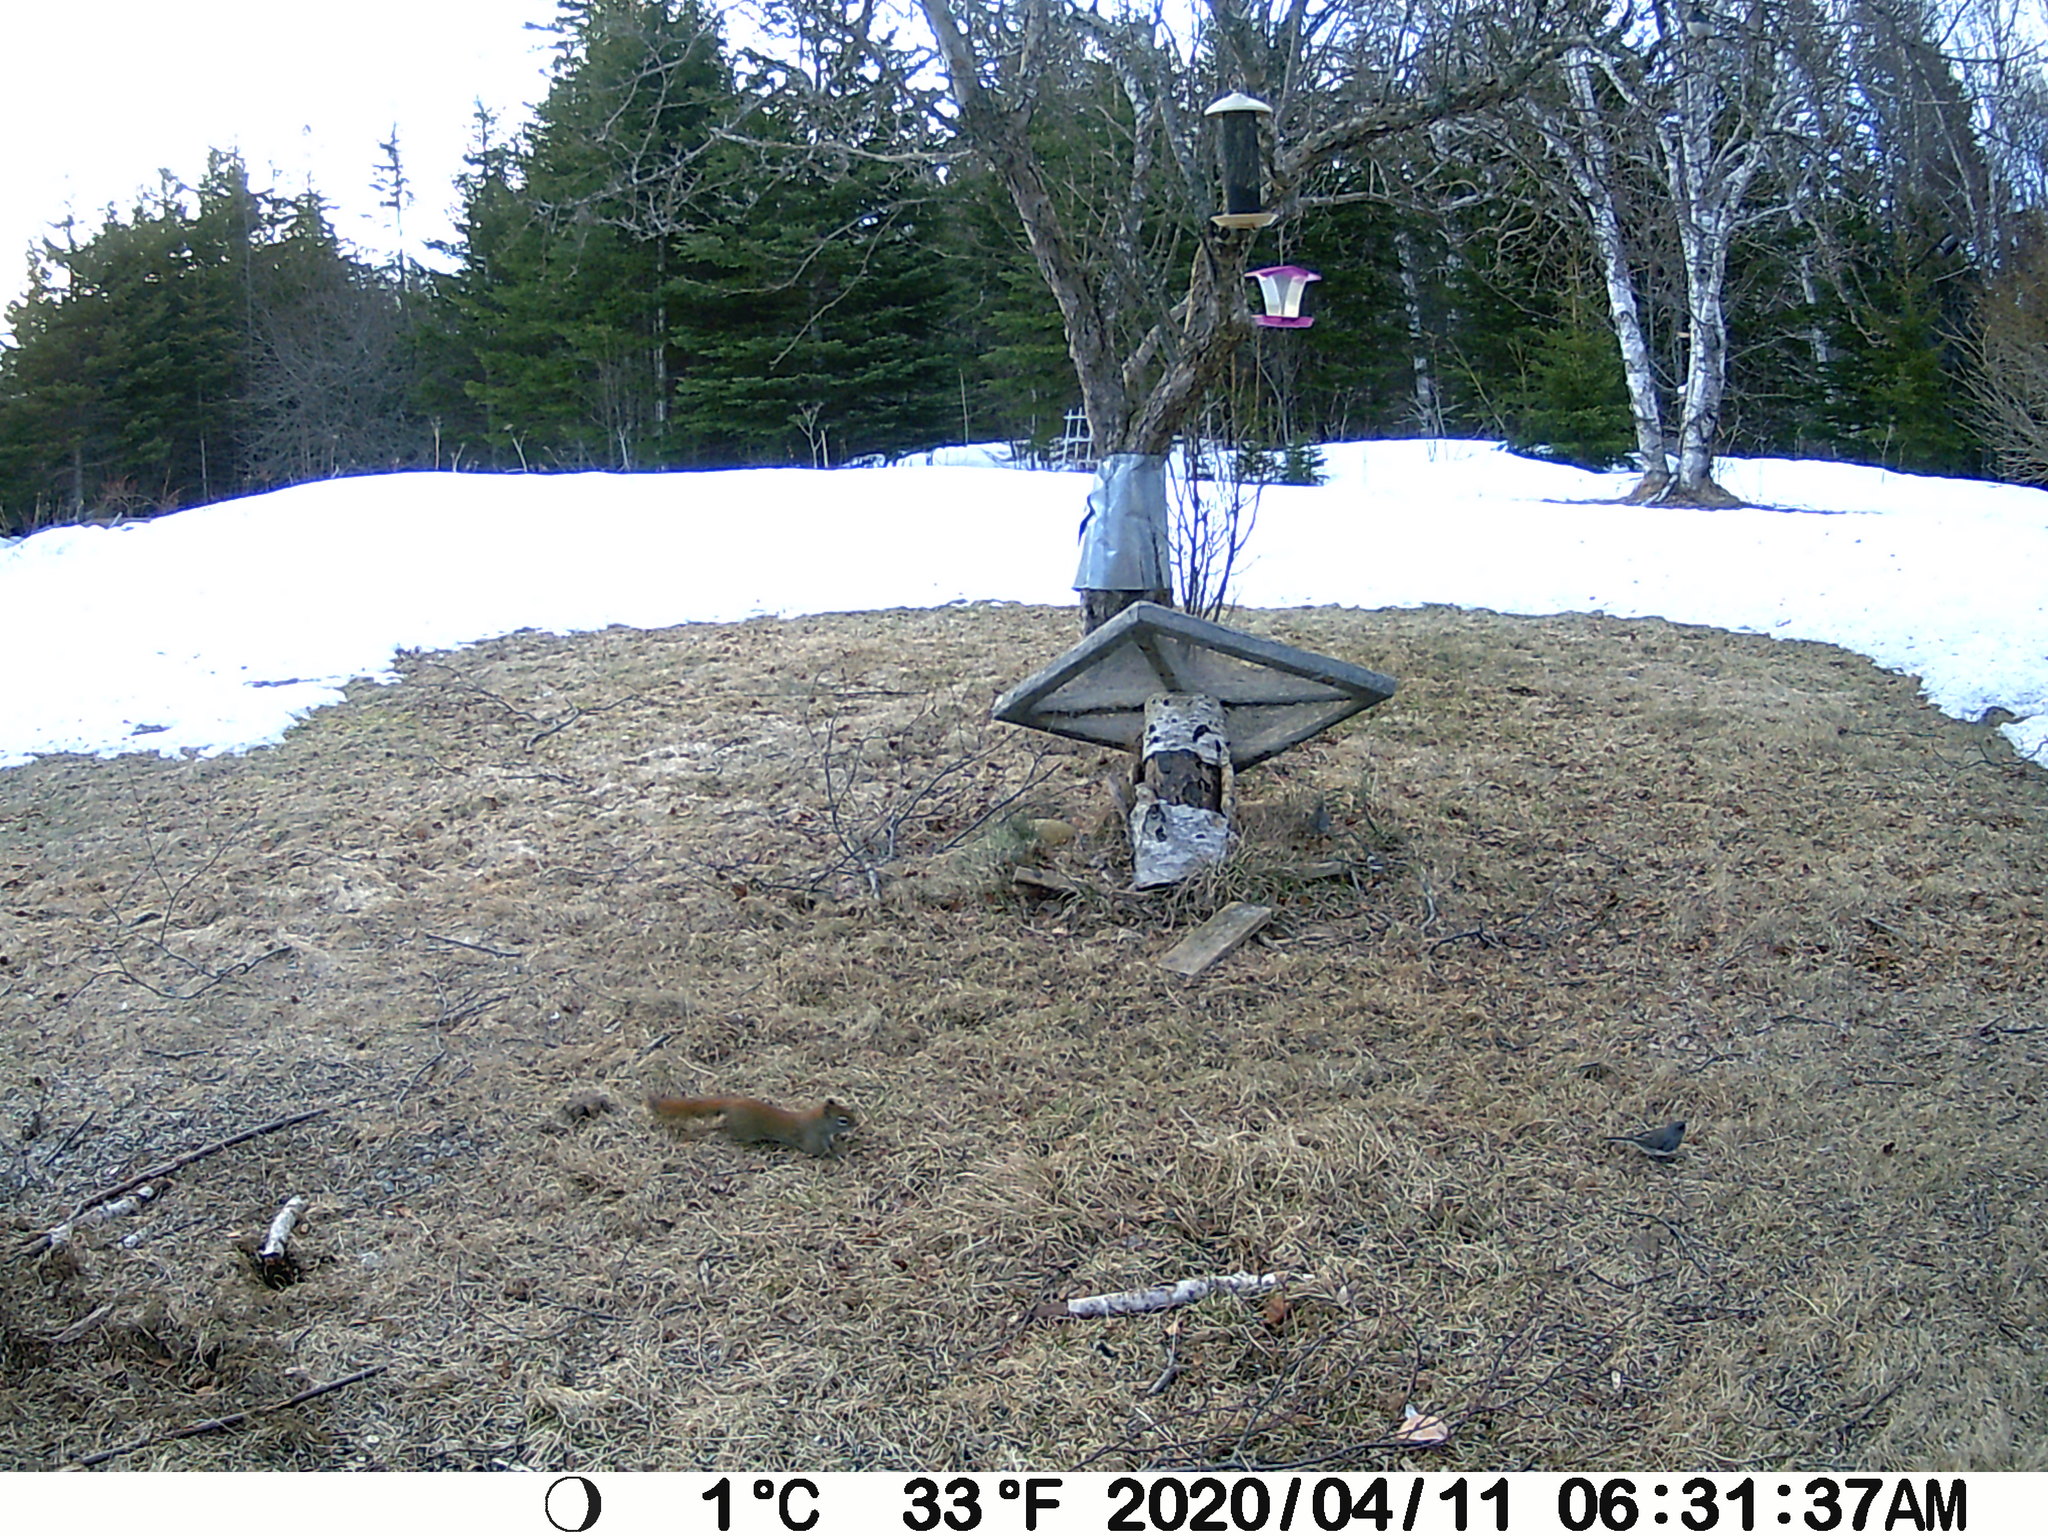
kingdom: Animalia
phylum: Chordata
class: Mammalia
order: Rodentia
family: Sciuridae
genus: Tamiasciurus
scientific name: Tamiasciurus hudsonicus
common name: Red squirrel
